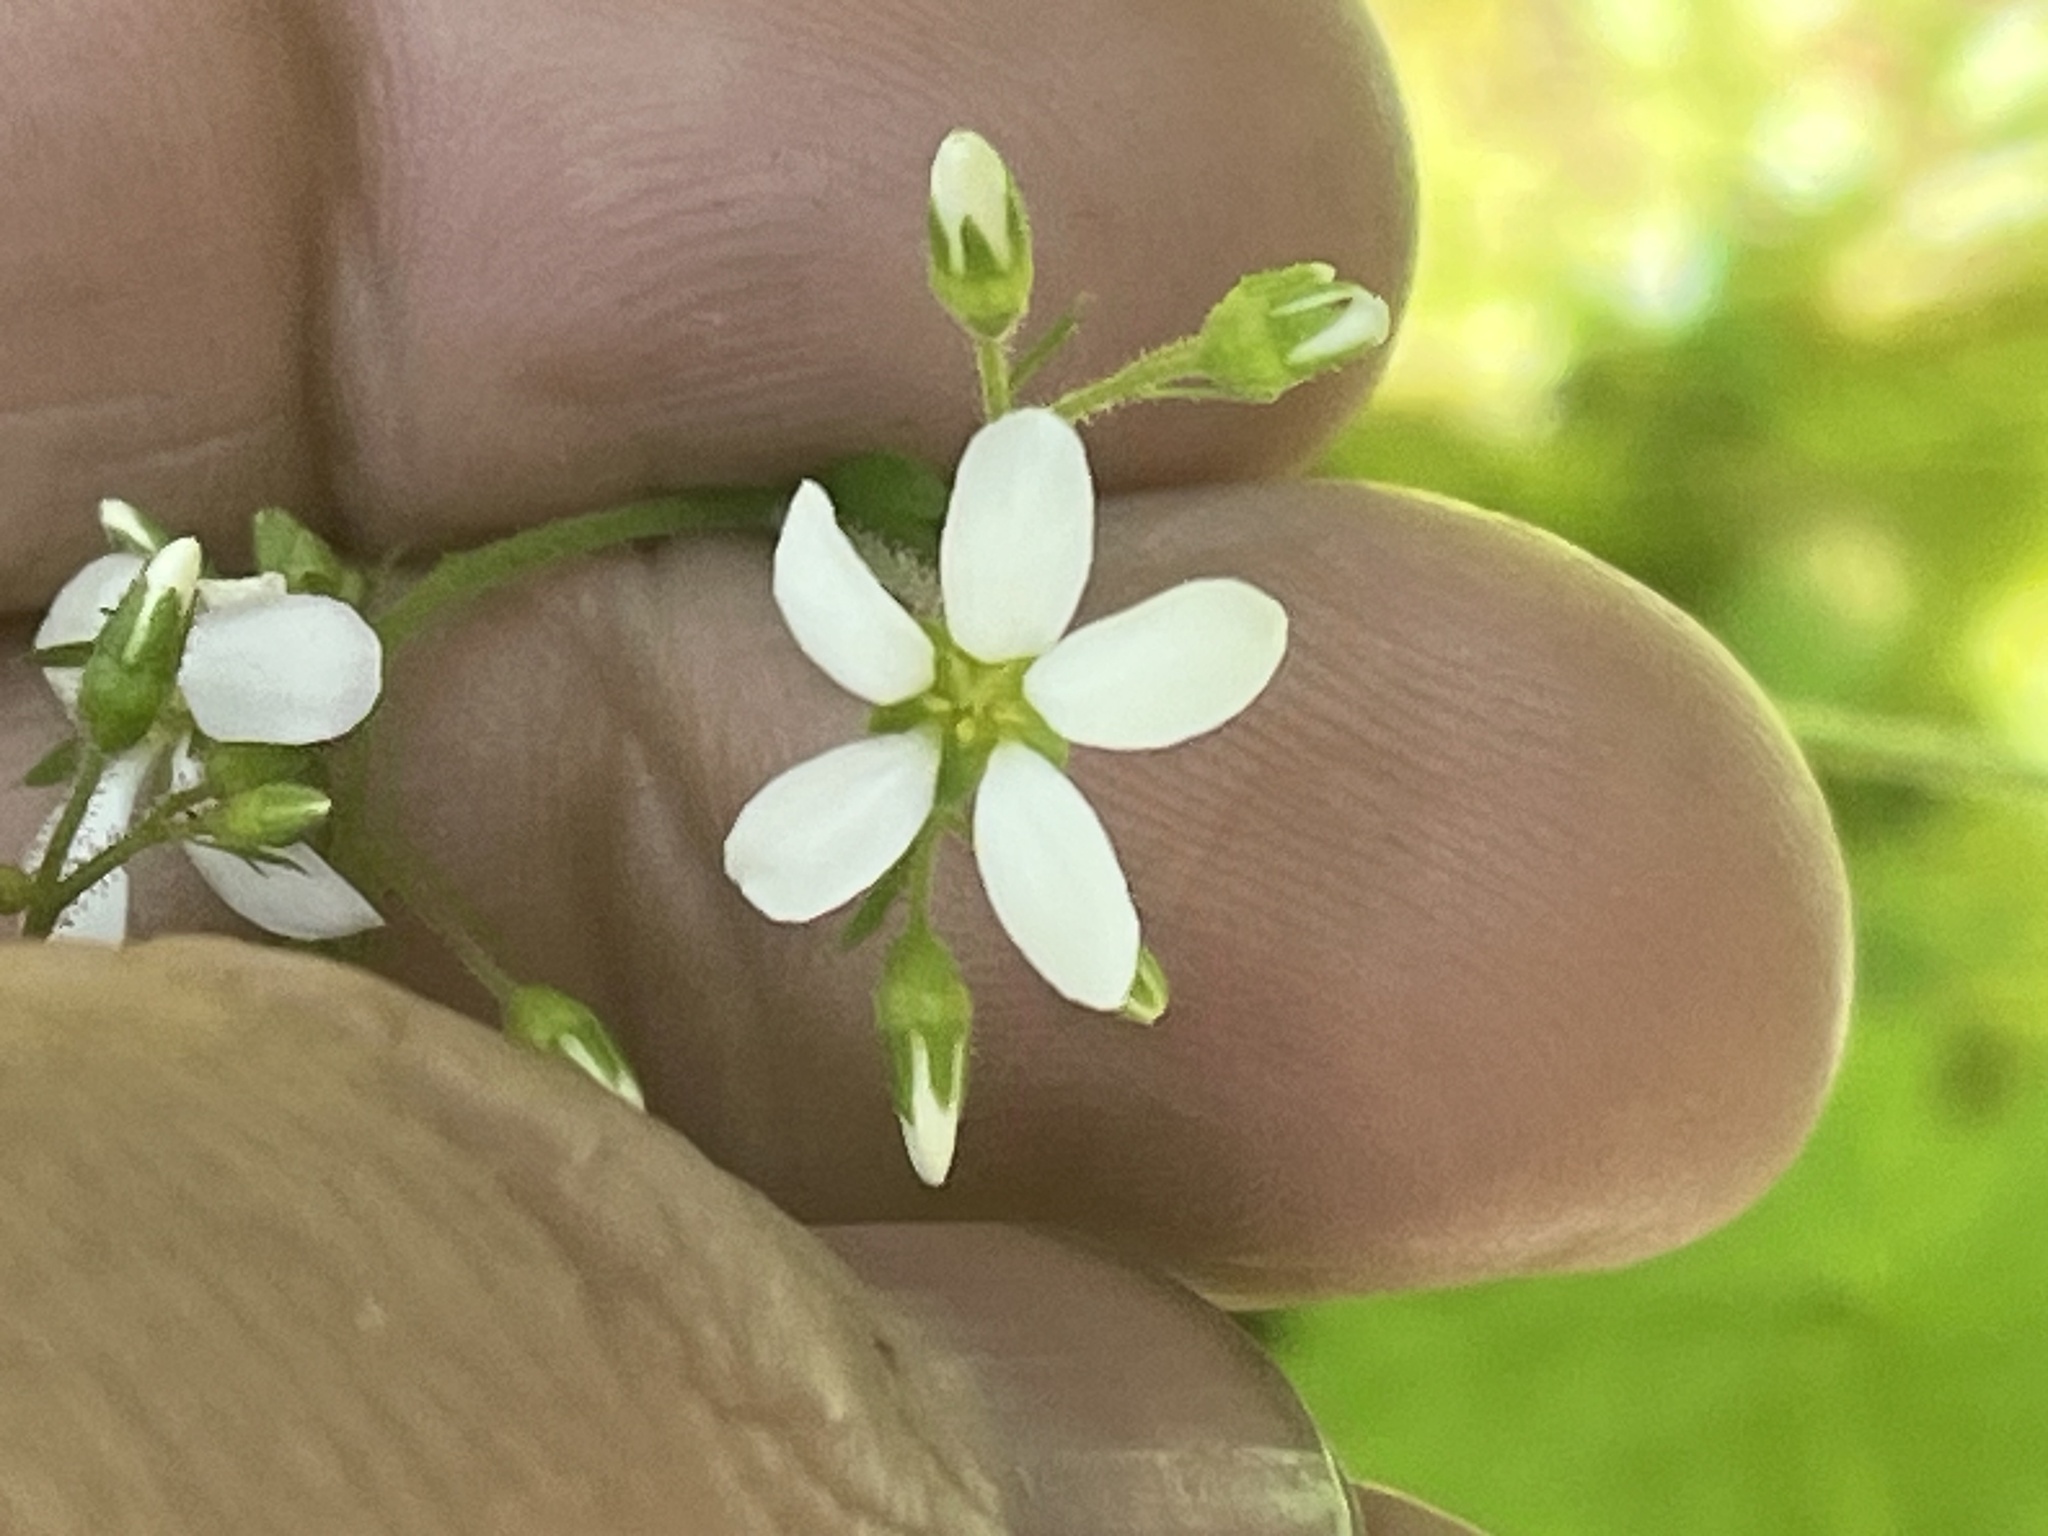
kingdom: Plantae
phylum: Tracheophyta
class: Magnoliopsida
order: Saxifragales
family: Saxifragaceae
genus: Boykinia
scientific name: Boykinia occidentalis
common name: Coast boykinia
